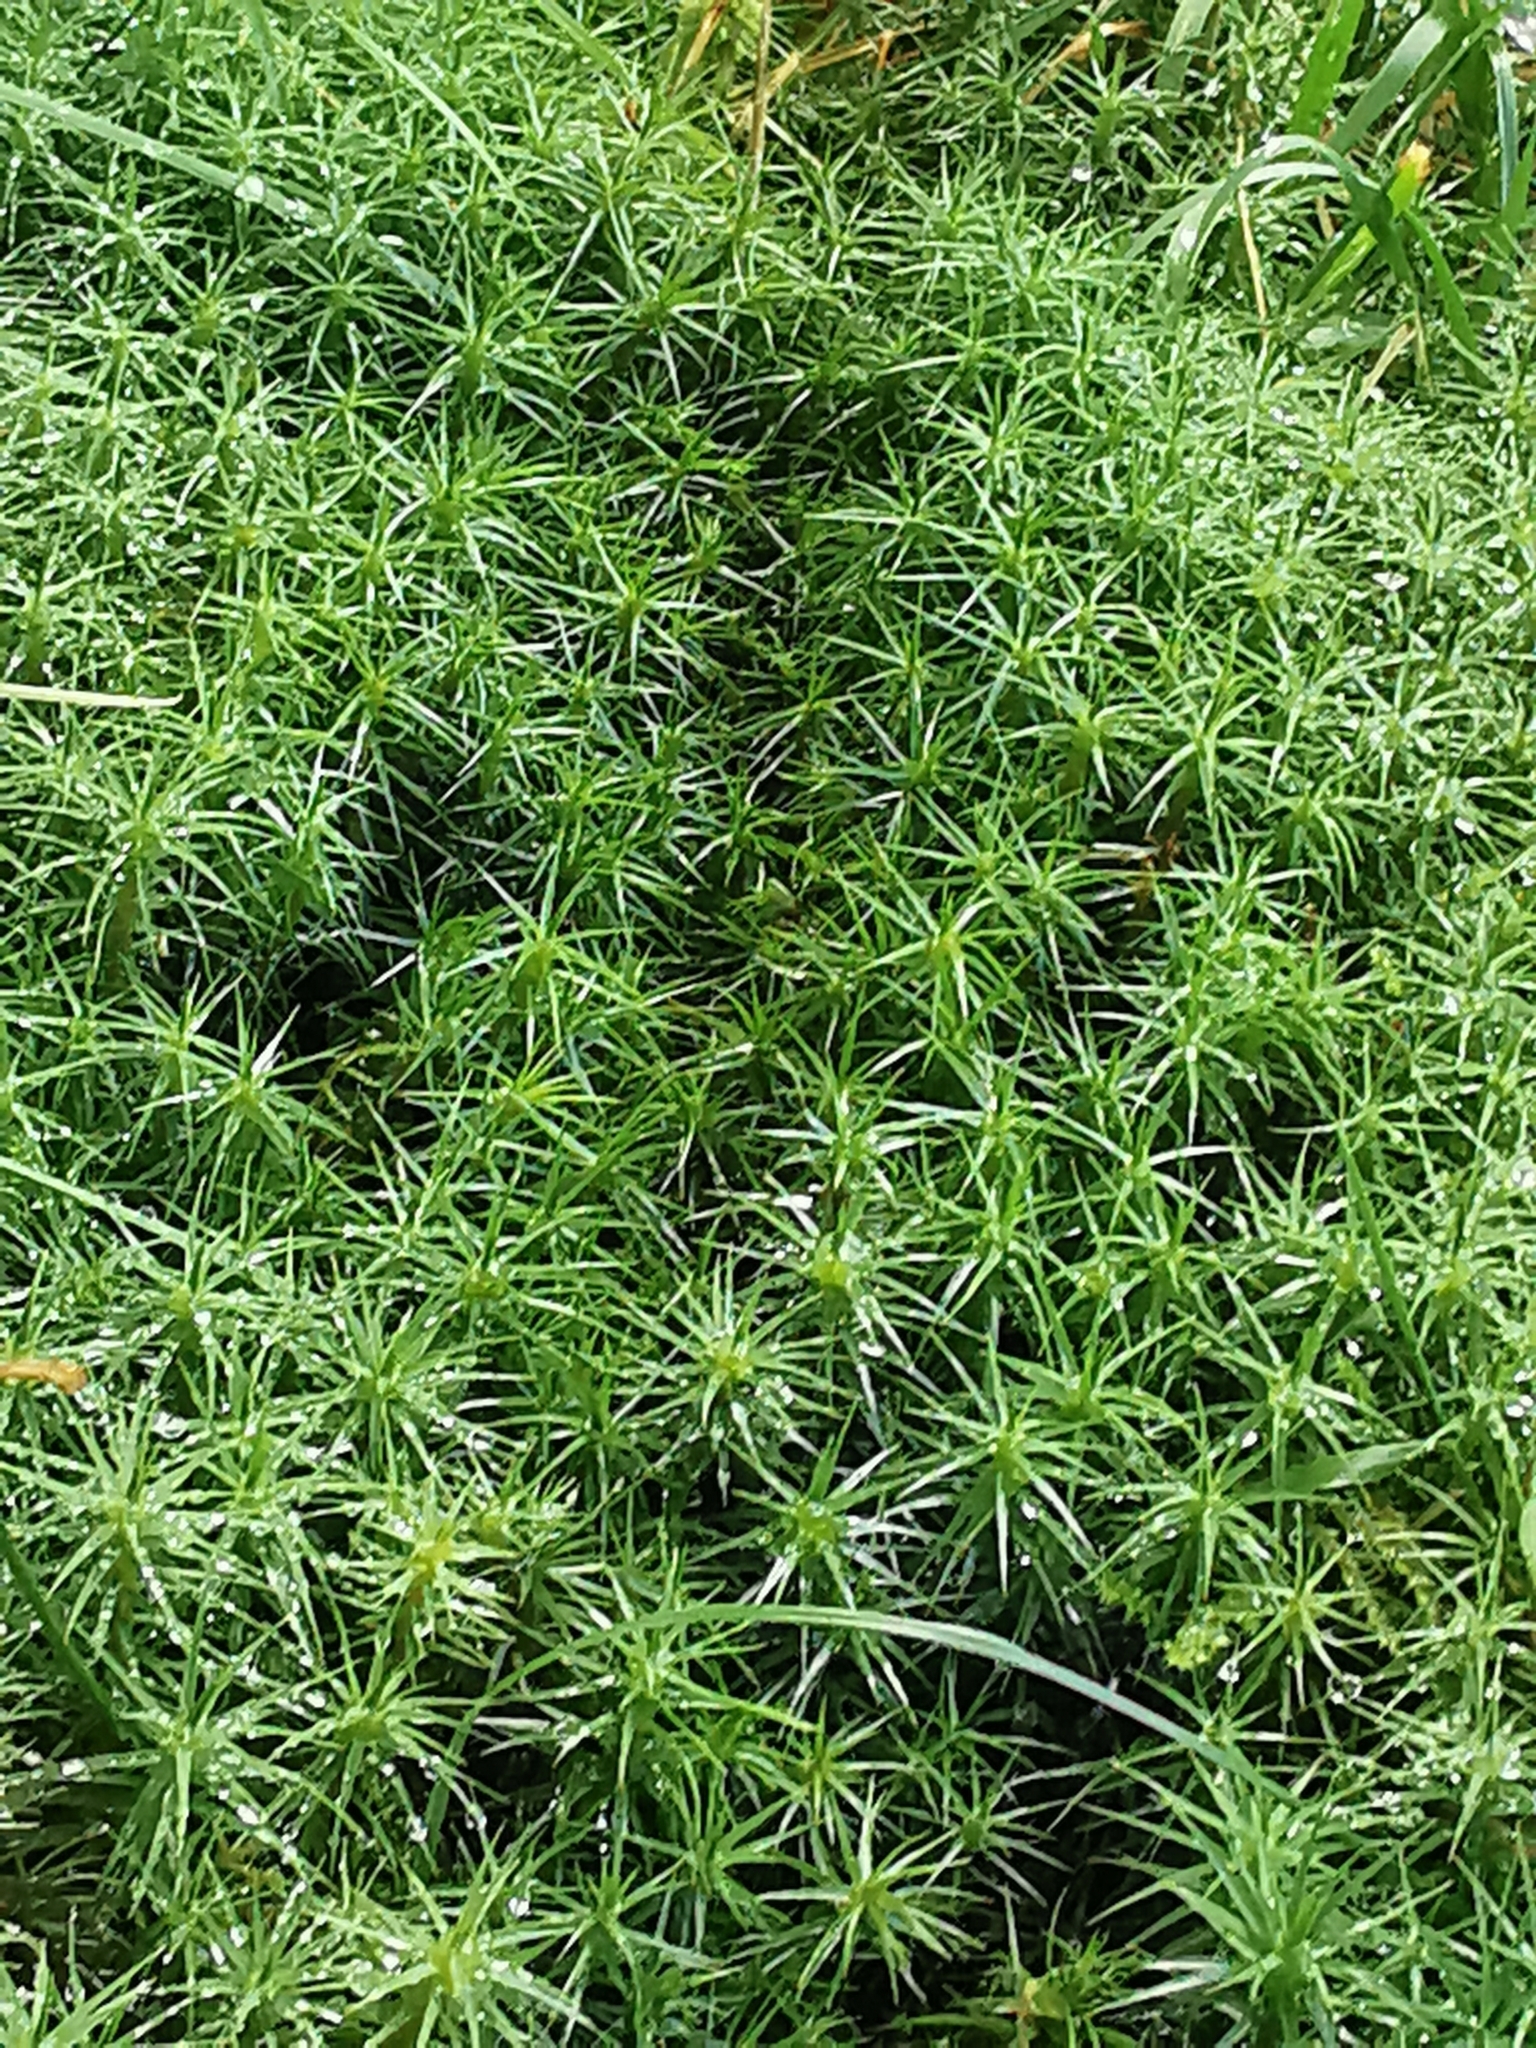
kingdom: Plantae
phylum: Bryophyta
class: Polytrichopsida
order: Polytrichales
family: Polytrichaceae
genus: Polytrichum
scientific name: Polytrichum commune
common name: Common haircap
